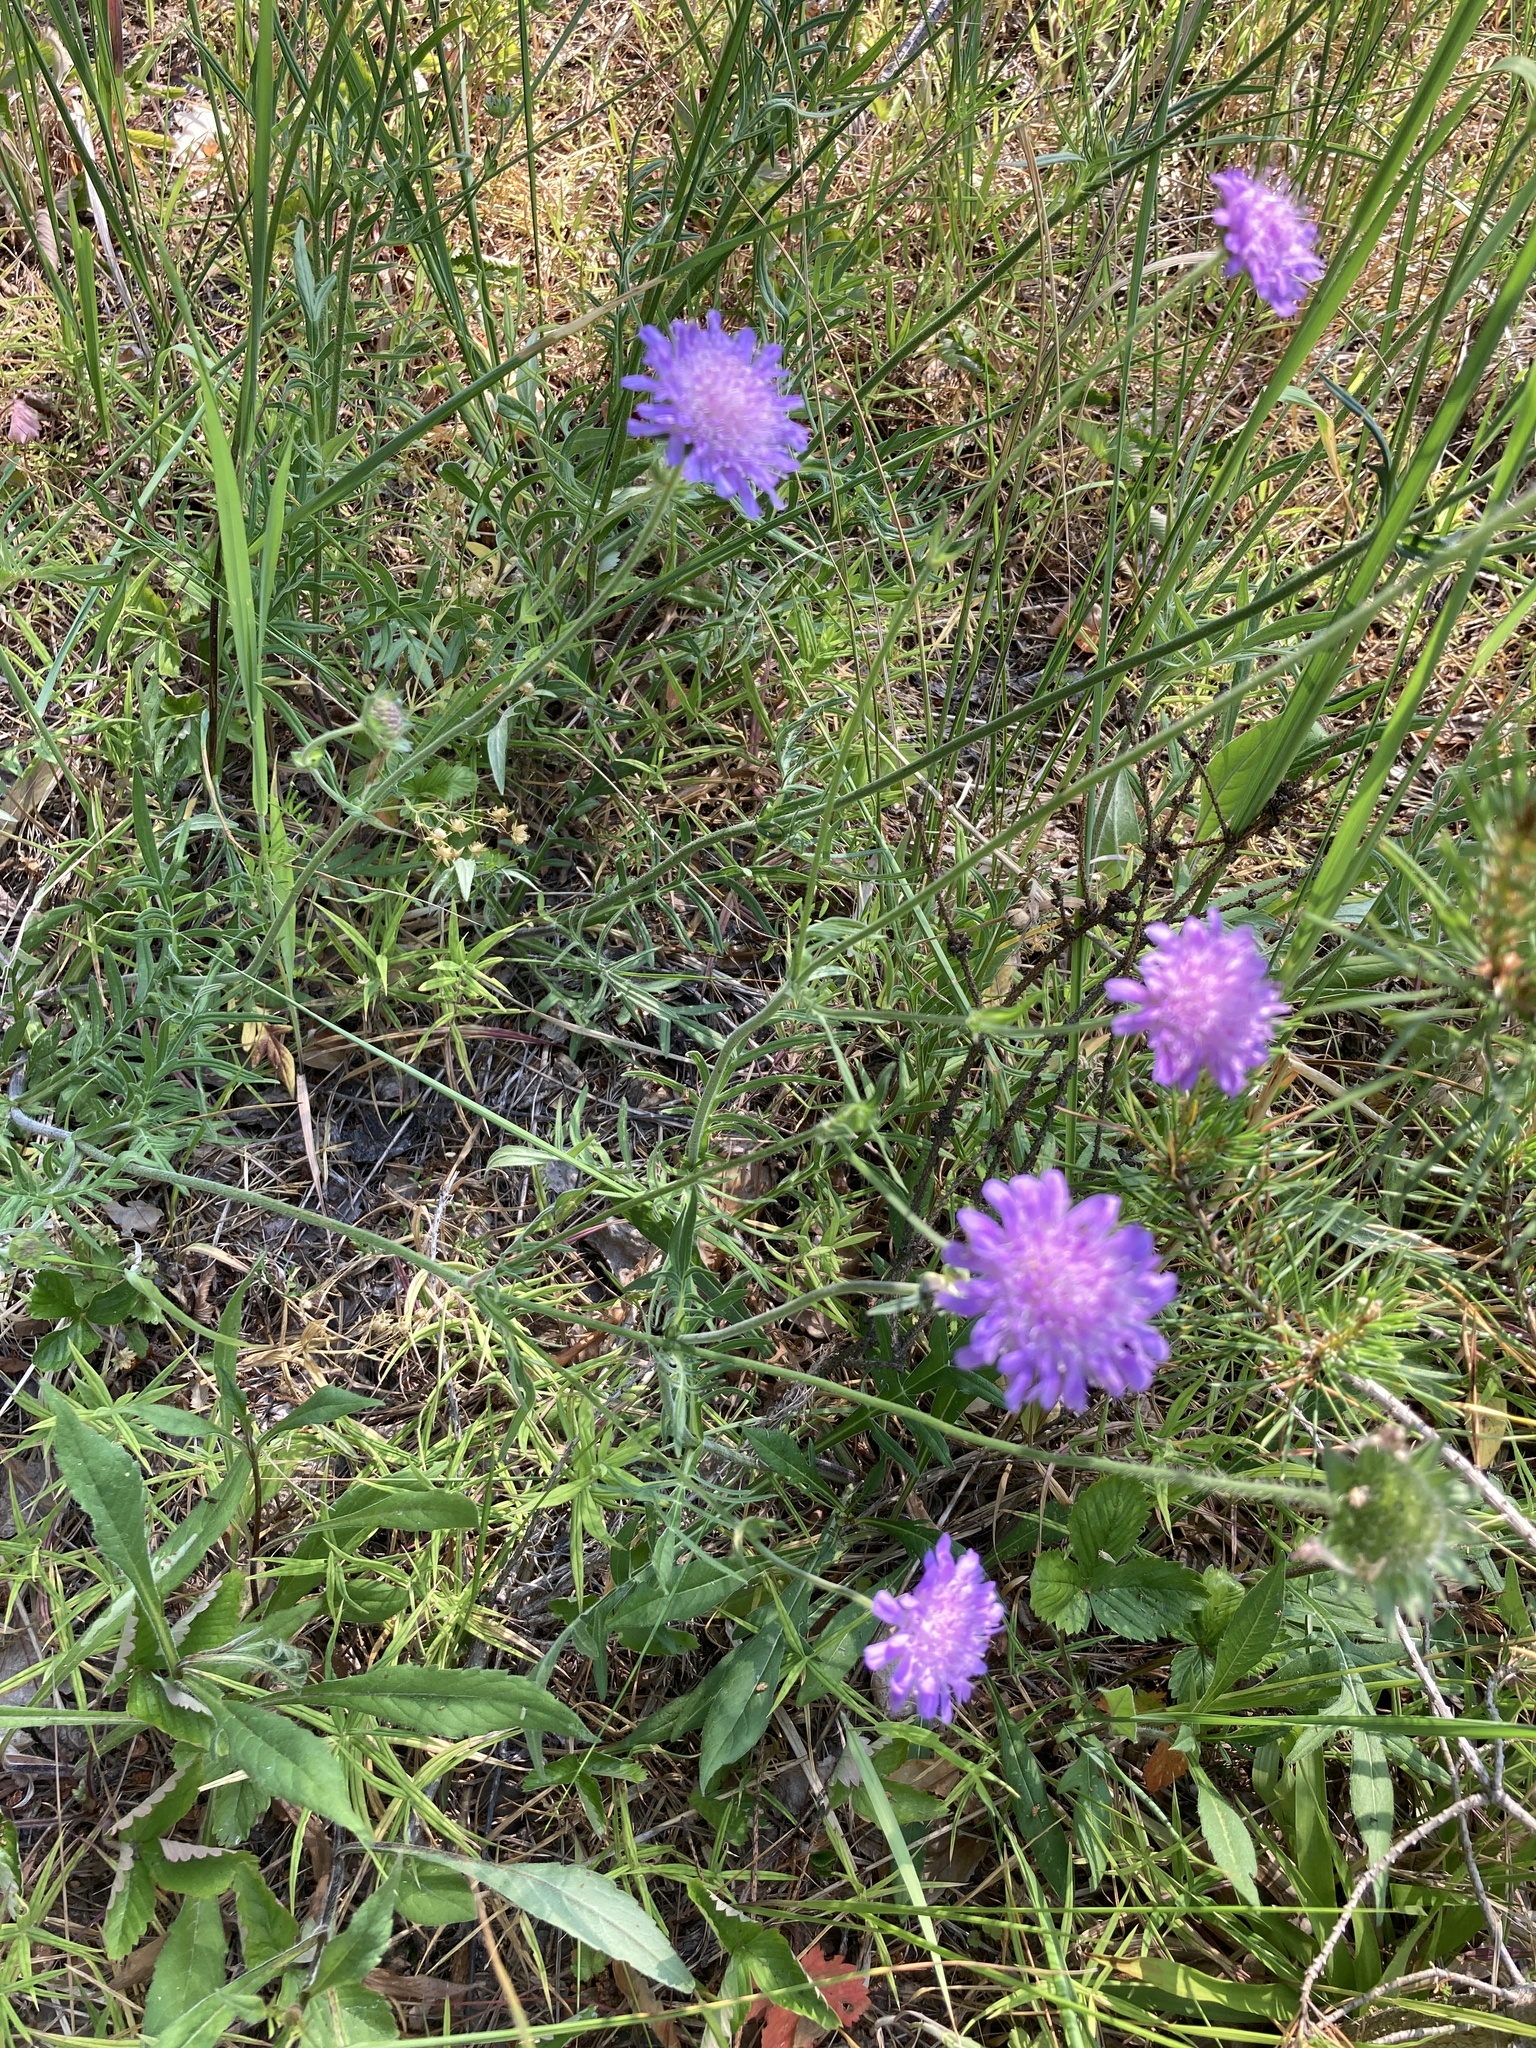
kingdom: Plantae
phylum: Tracheophyta
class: Magnoliopsida
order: Dipsacales
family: Caprifoliaceae
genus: Knautia
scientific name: Knautia arvensis
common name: Field scabiosa
